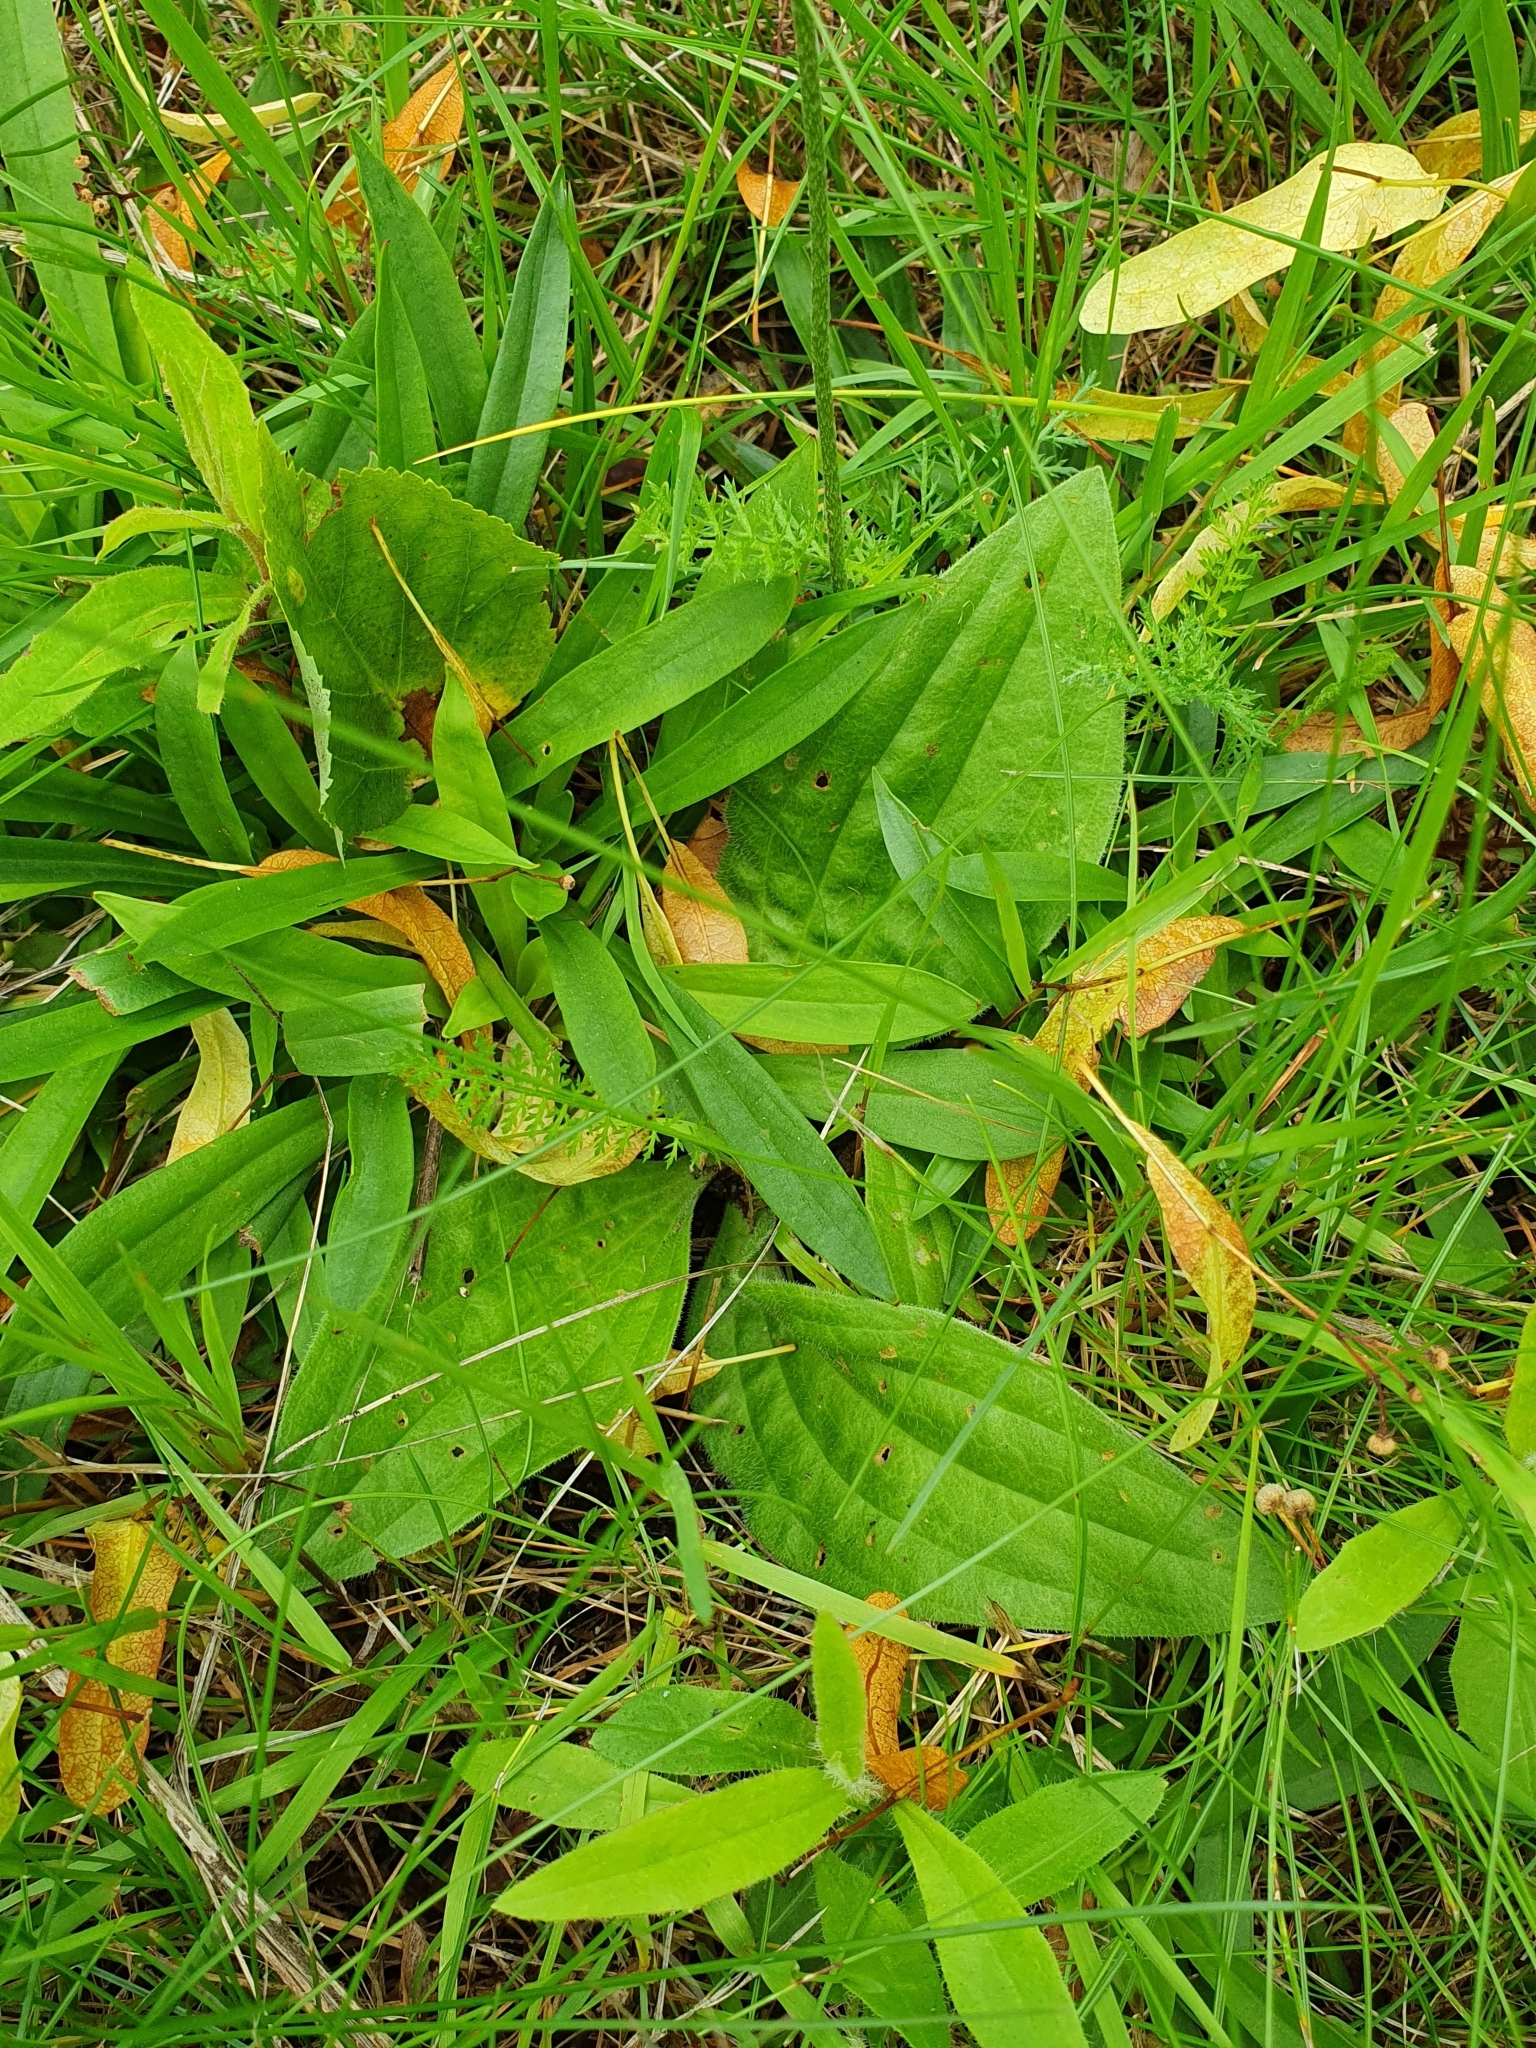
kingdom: Plantae
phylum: Tracheophyta
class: Magnoliopsida
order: Lamiales
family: Plantaginaceae
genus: Plantago
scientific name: Plantago media
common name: Hoary plantain
